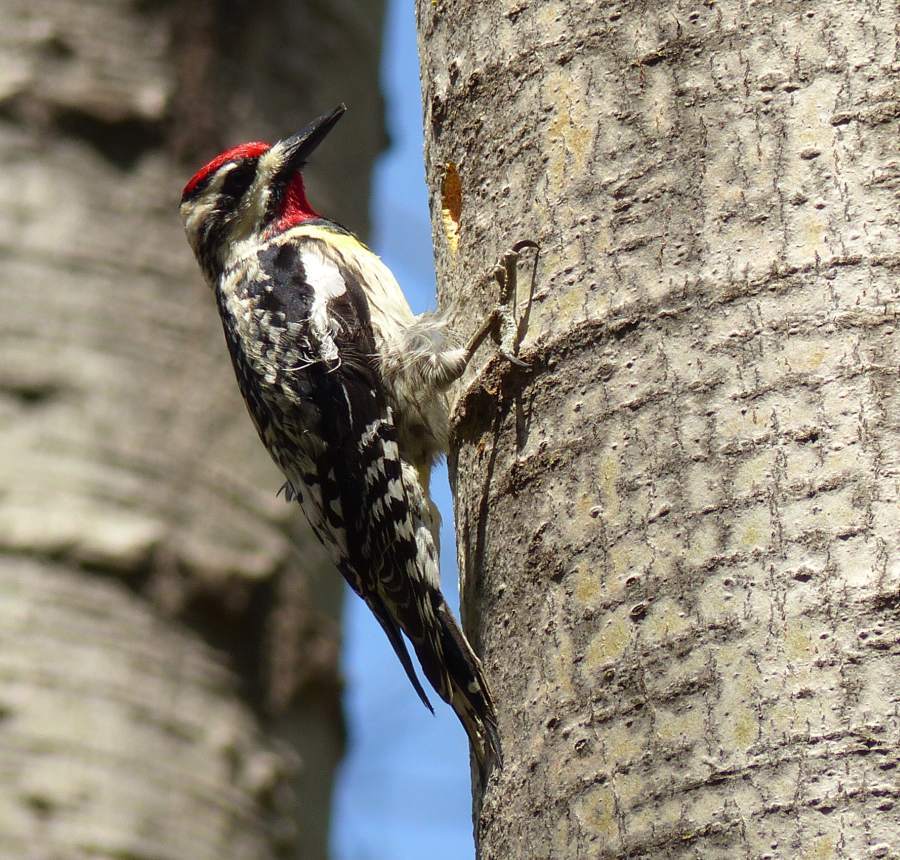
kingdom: Animalia
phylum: Chordata
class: Aves
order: Piciformes
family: Picidae
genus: Sphyrapicus
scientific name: Sphyrapicus varius
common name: Yellow-bellied sapsucker
